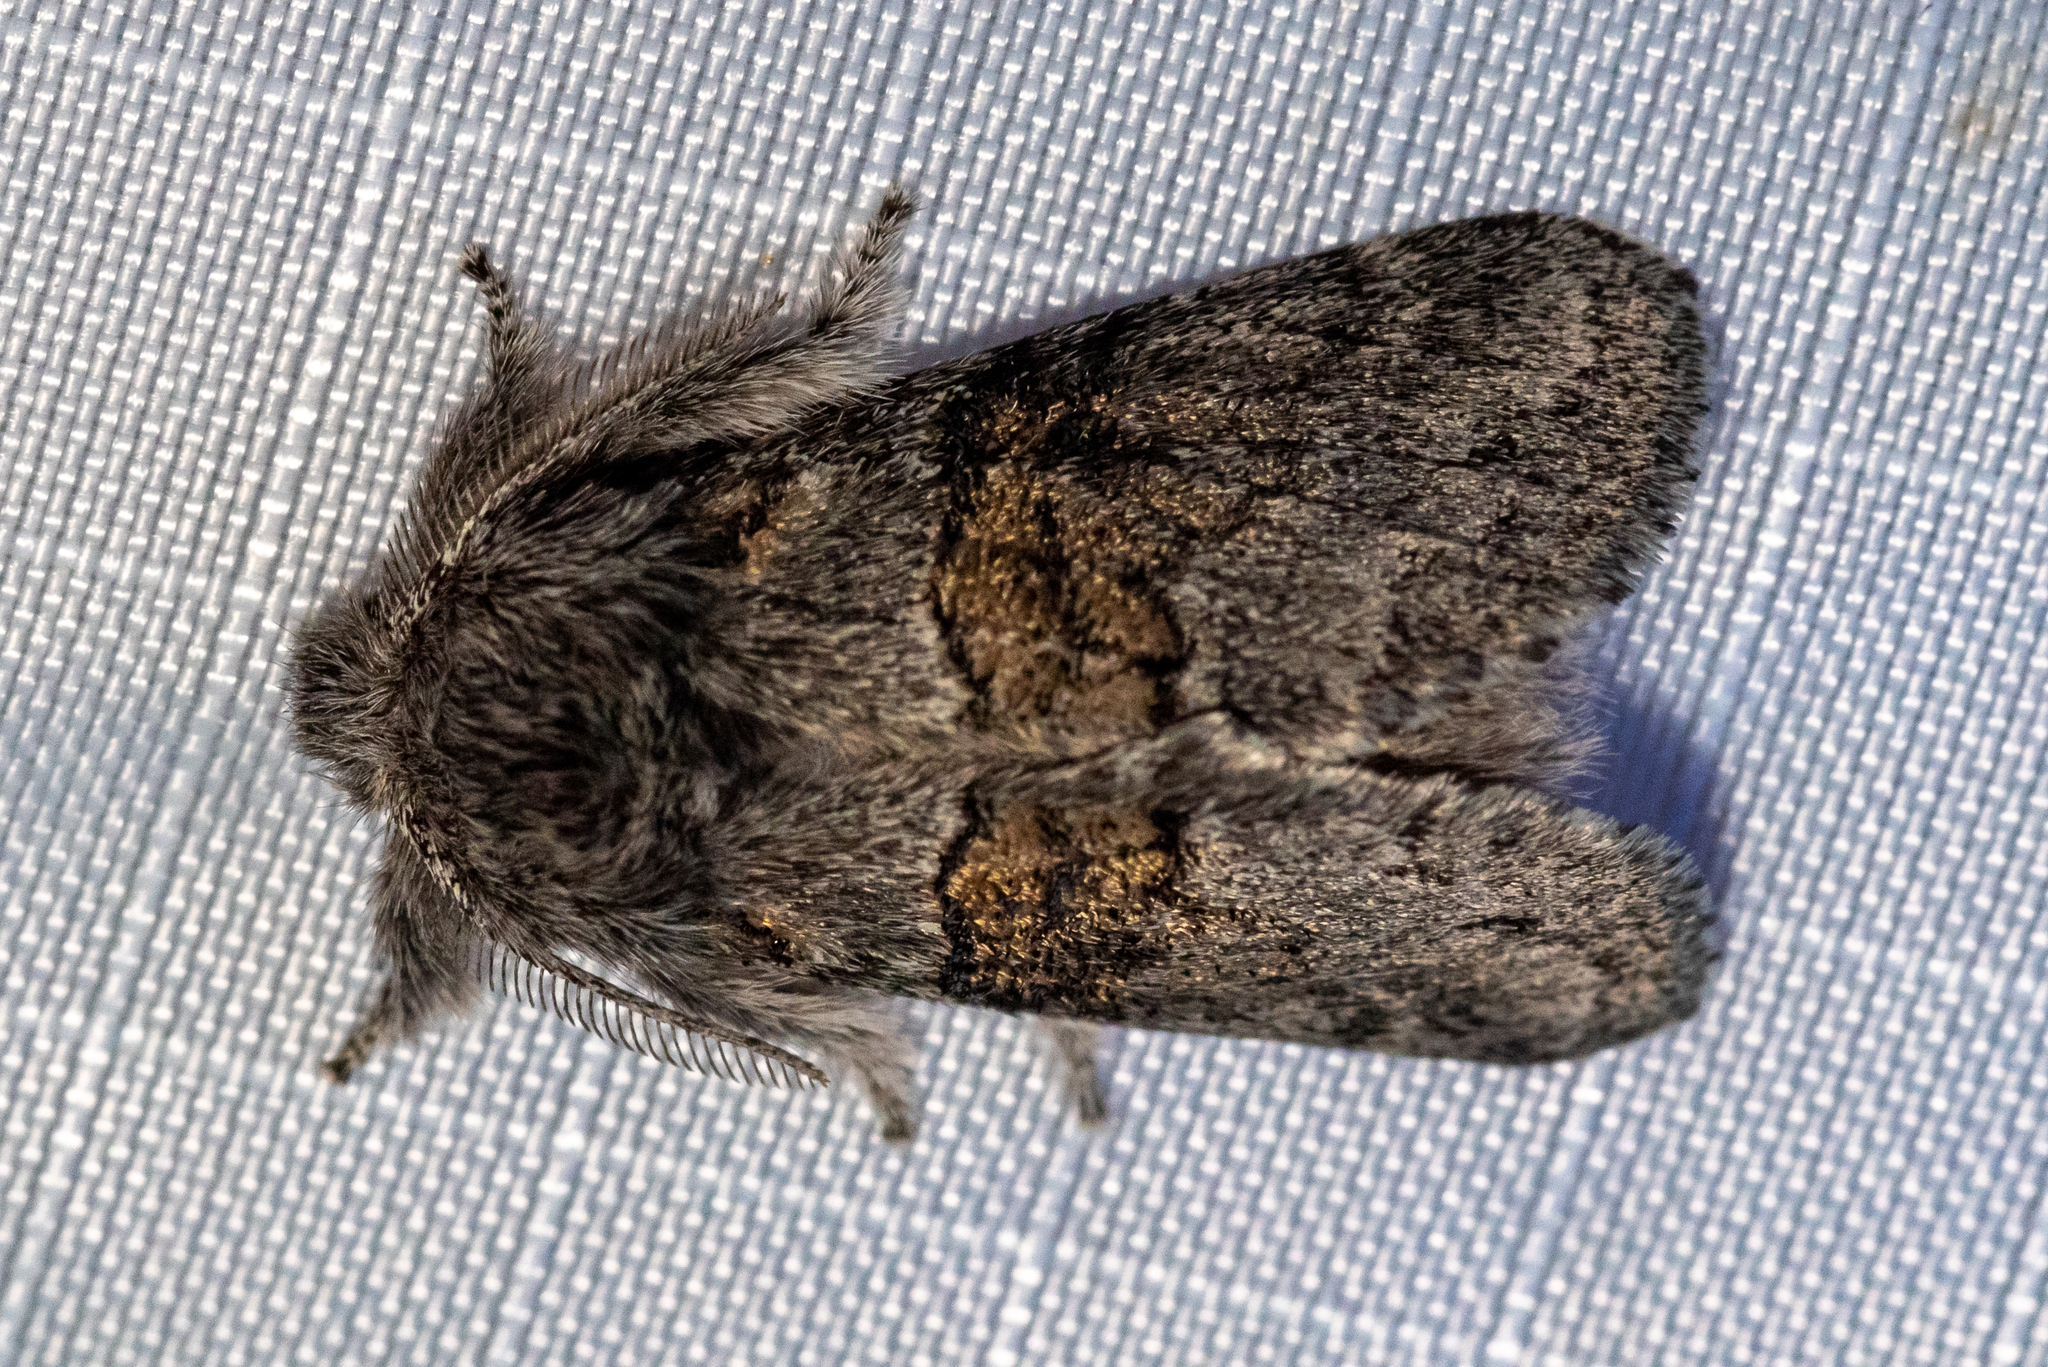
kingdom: Animalia
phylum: Arthropoda
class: Insecta
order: Lepidoptera
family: Notodontidae
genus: Gluphisia
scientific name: Gluphisia septentrionis
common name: Common gluphisia
